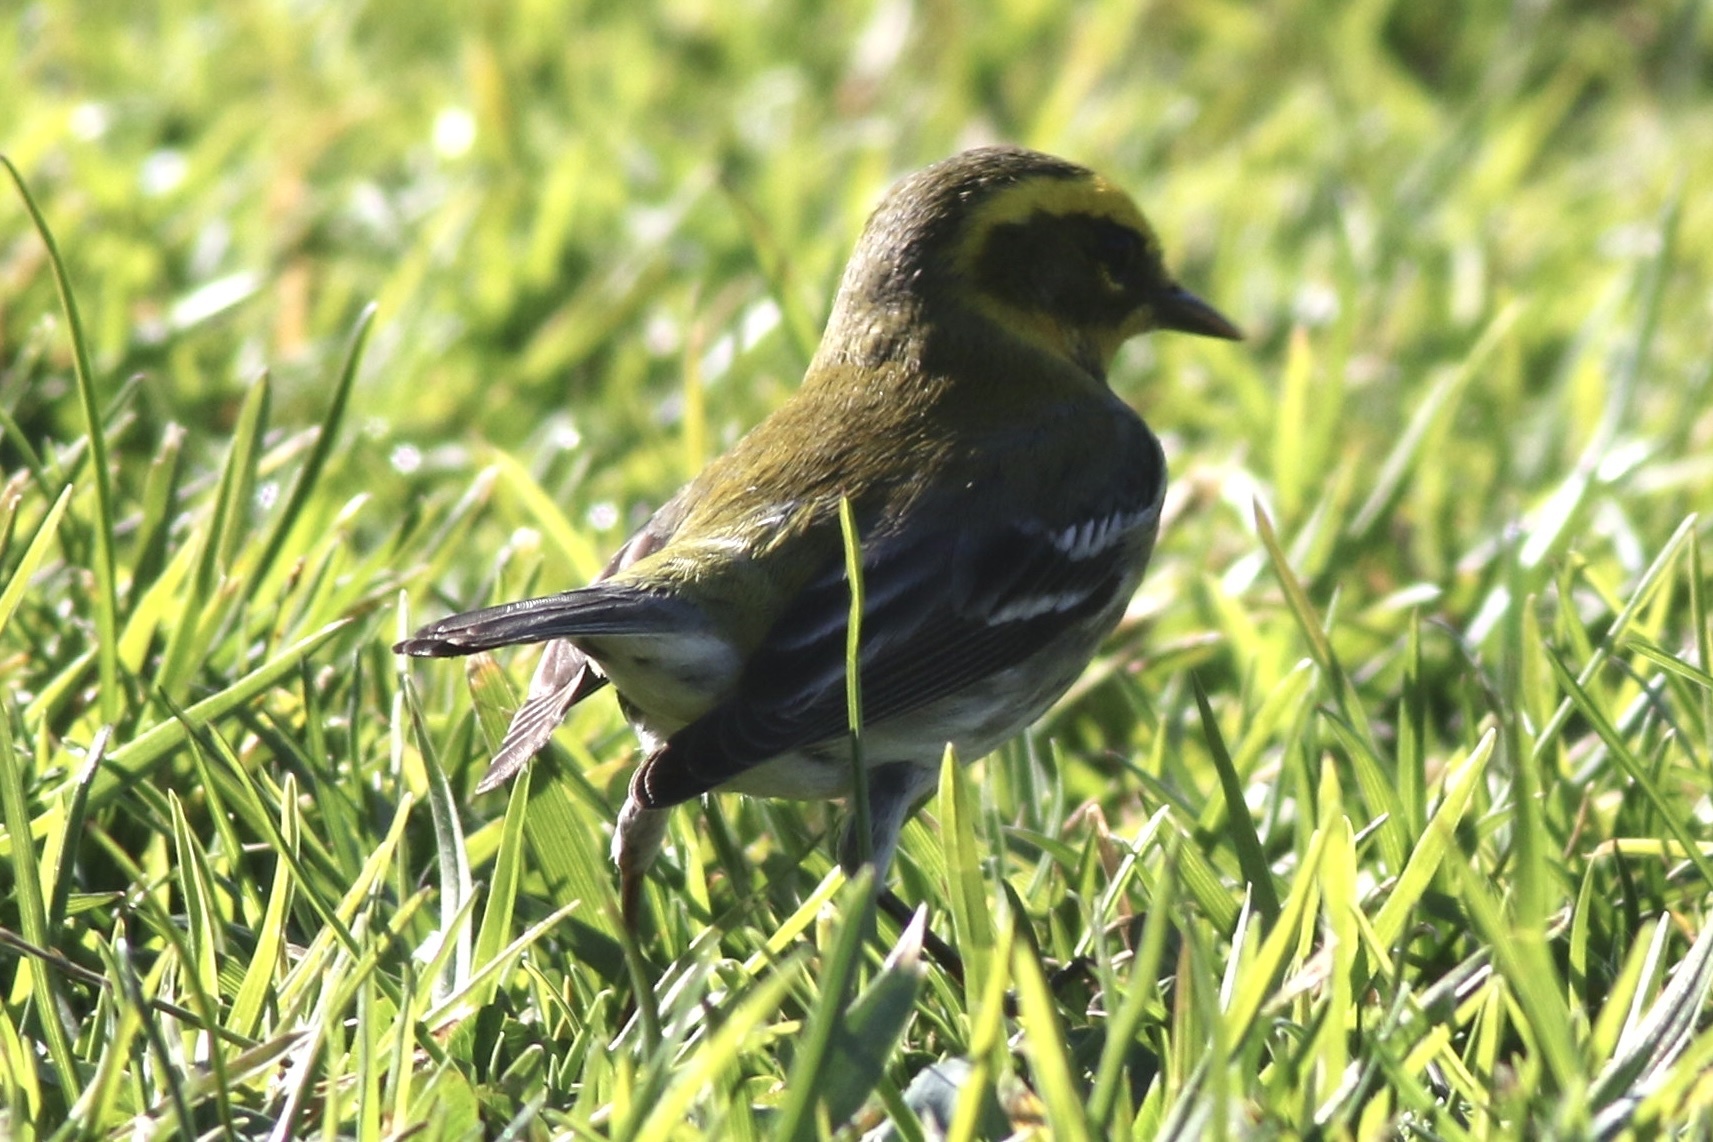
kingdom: Animalia
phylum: Chordata
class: Aves
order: Passeriformes
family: Parulidae
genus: Setophaga
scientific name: Setophaga townsendi
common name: Townsend's warbler
